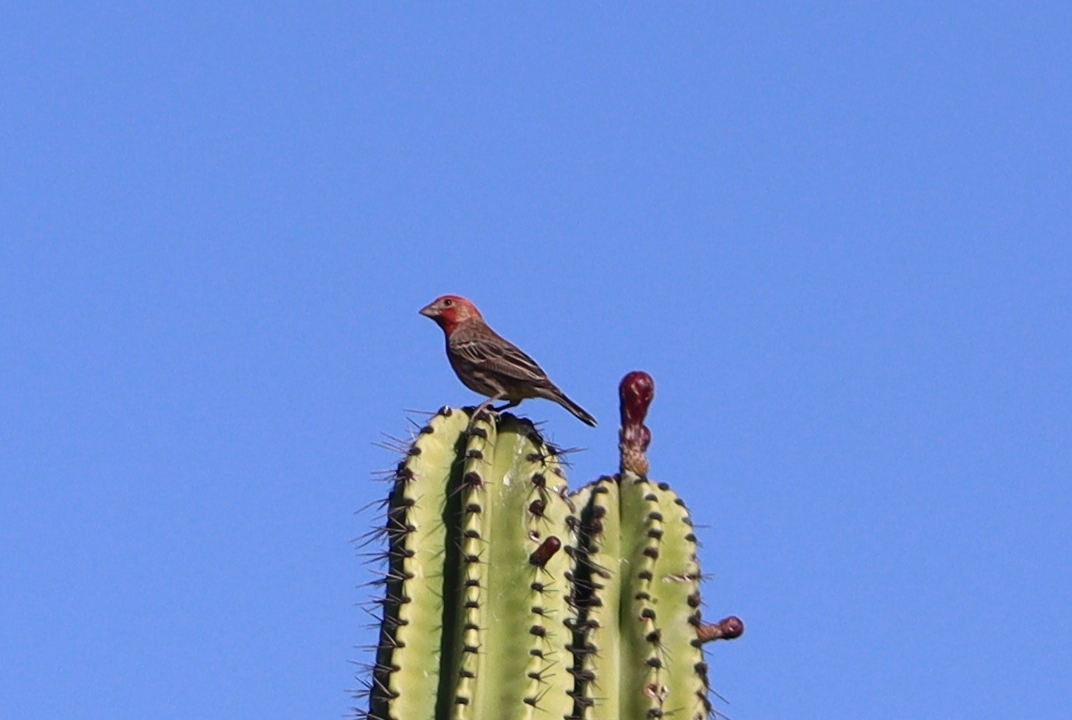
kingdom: Animalia
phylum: Chordata
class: Aves
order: Passeriformes
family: Fringillidae
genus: Haemorhous
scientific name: Haemorhous mexicanus
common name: House finch
